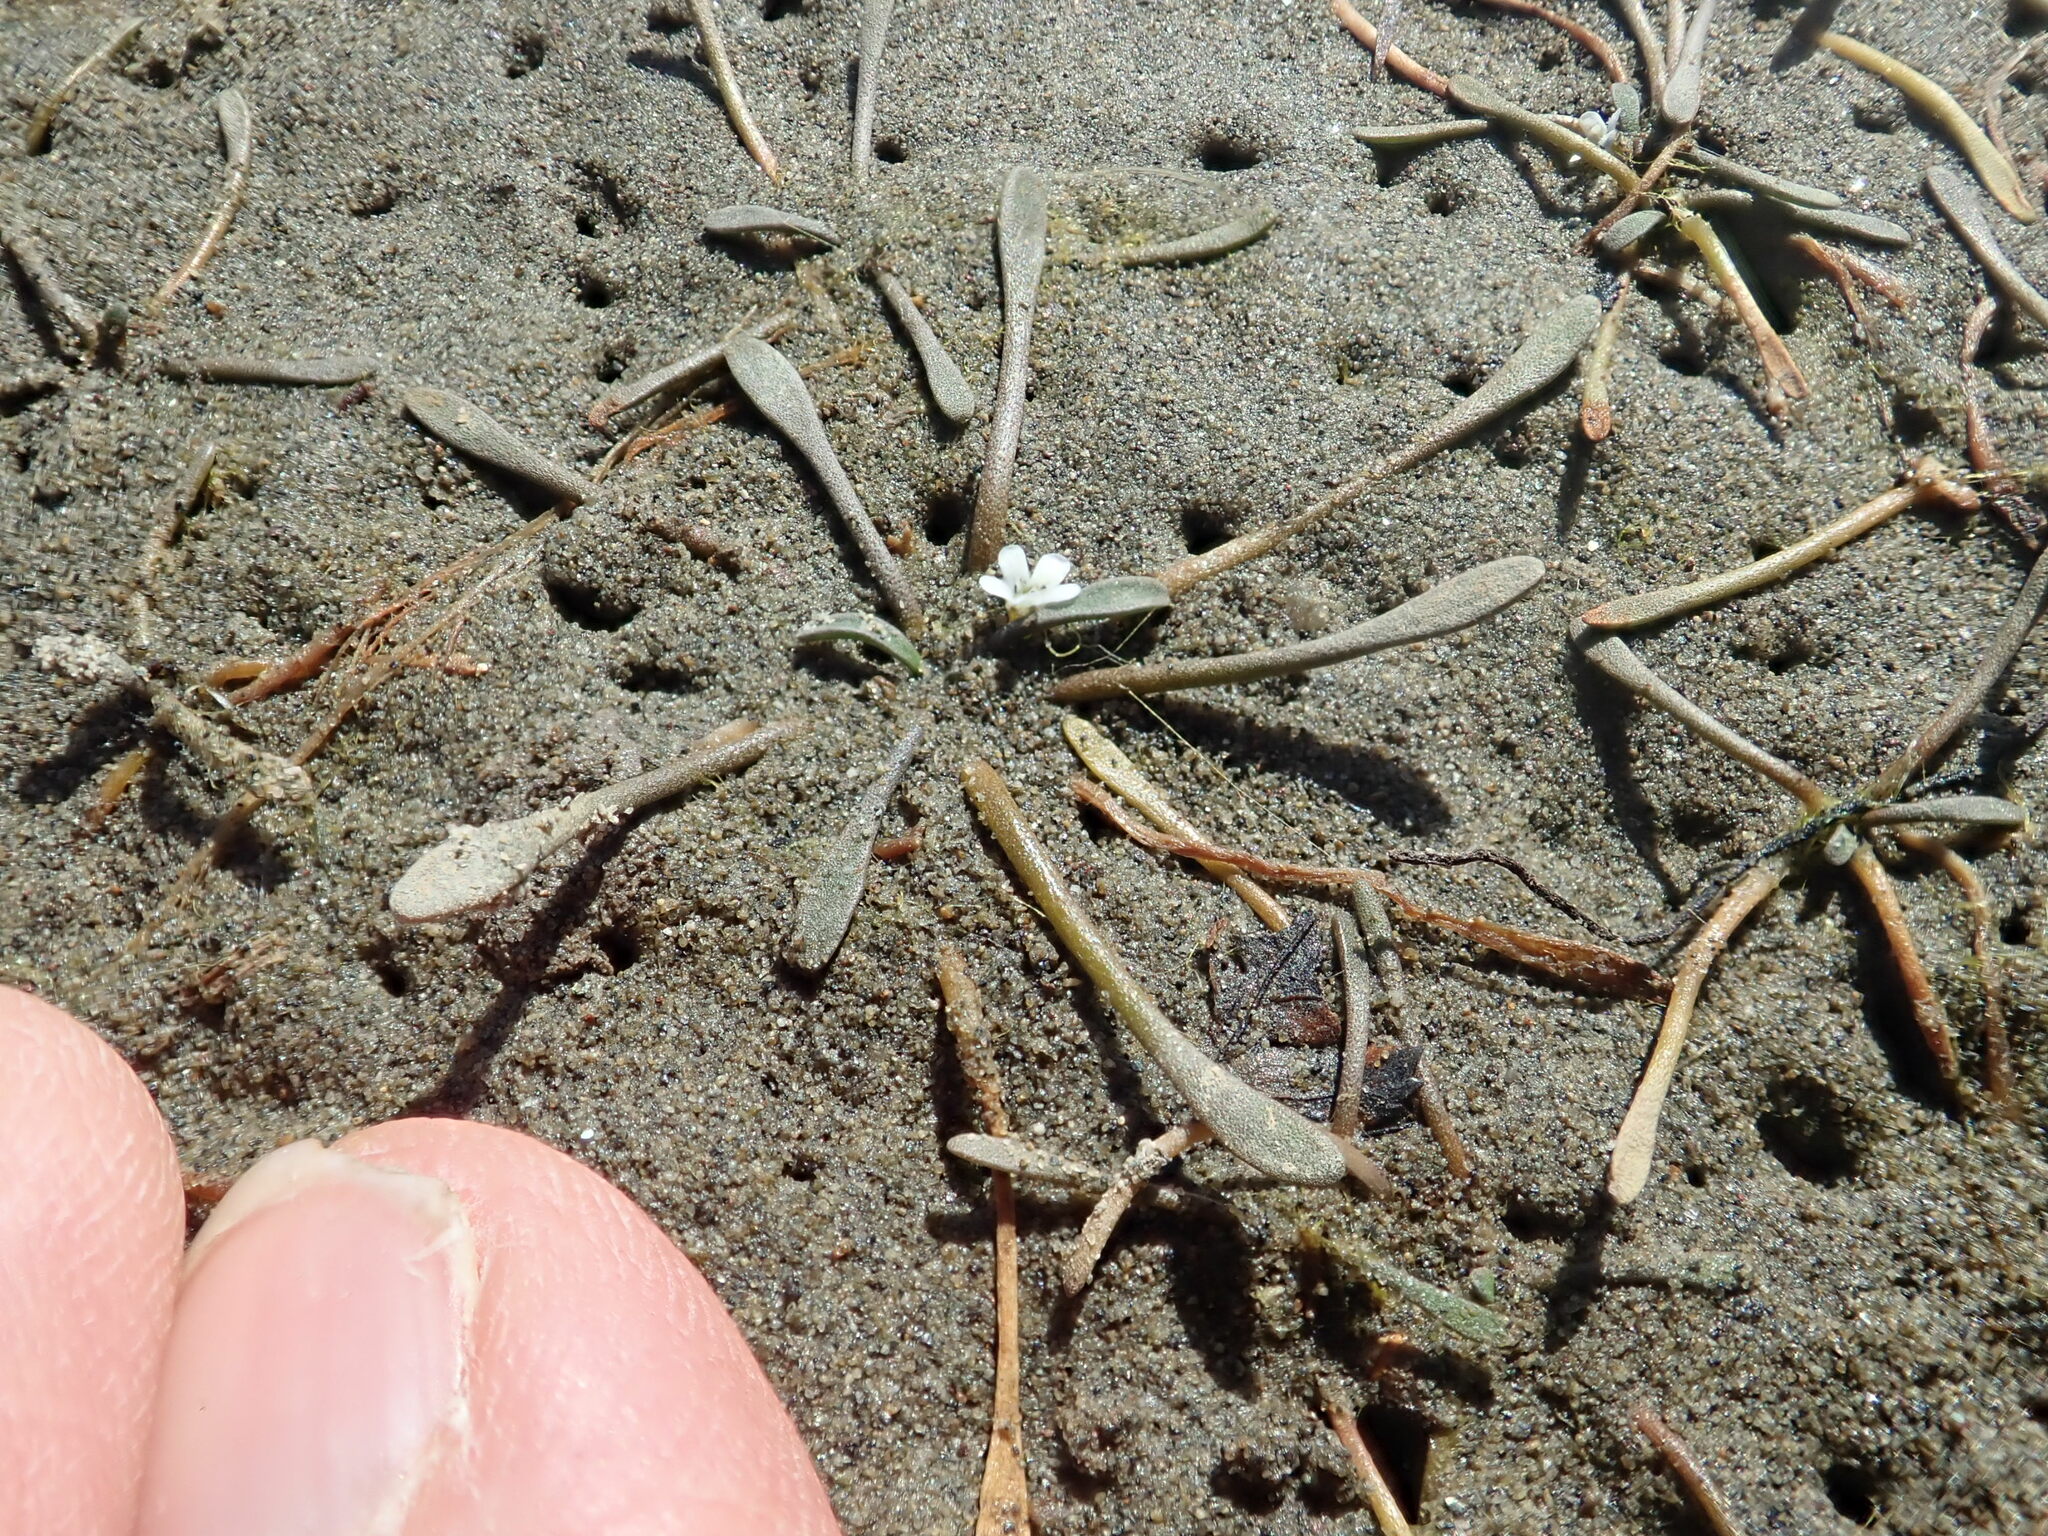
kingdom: Plantae
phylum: Tracheophyta
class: Magnoliopsida
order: Lamiales
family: Scrophulariaceae
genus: Limosella
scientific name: Limosella australis
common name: Welsh mudwort
